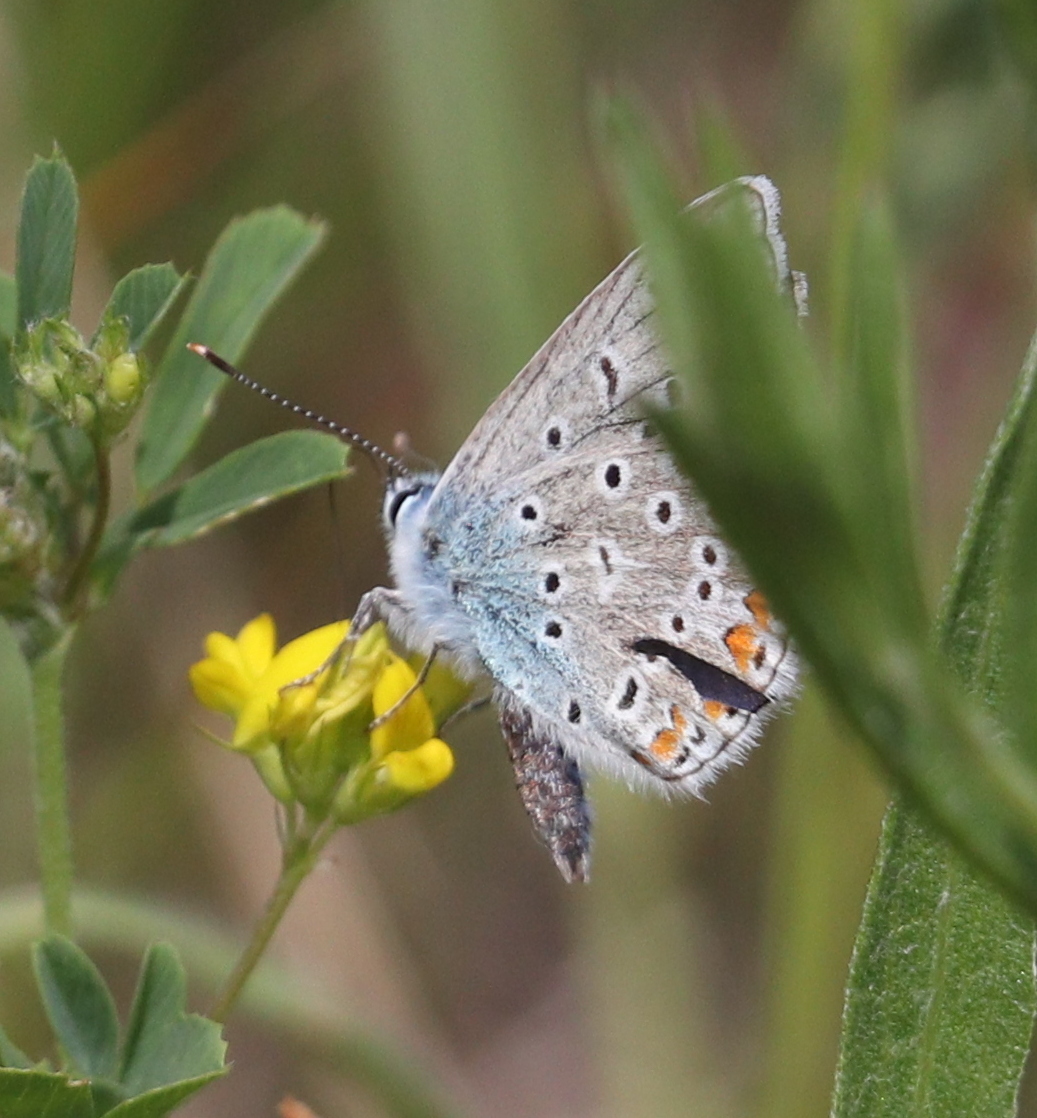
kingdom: Animalia
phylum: Arthropoda
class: Insecta
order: Lepidoptera
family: Lycaenidae
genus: Polyommatus
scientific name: Polyommatus icarus
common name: Common blue
